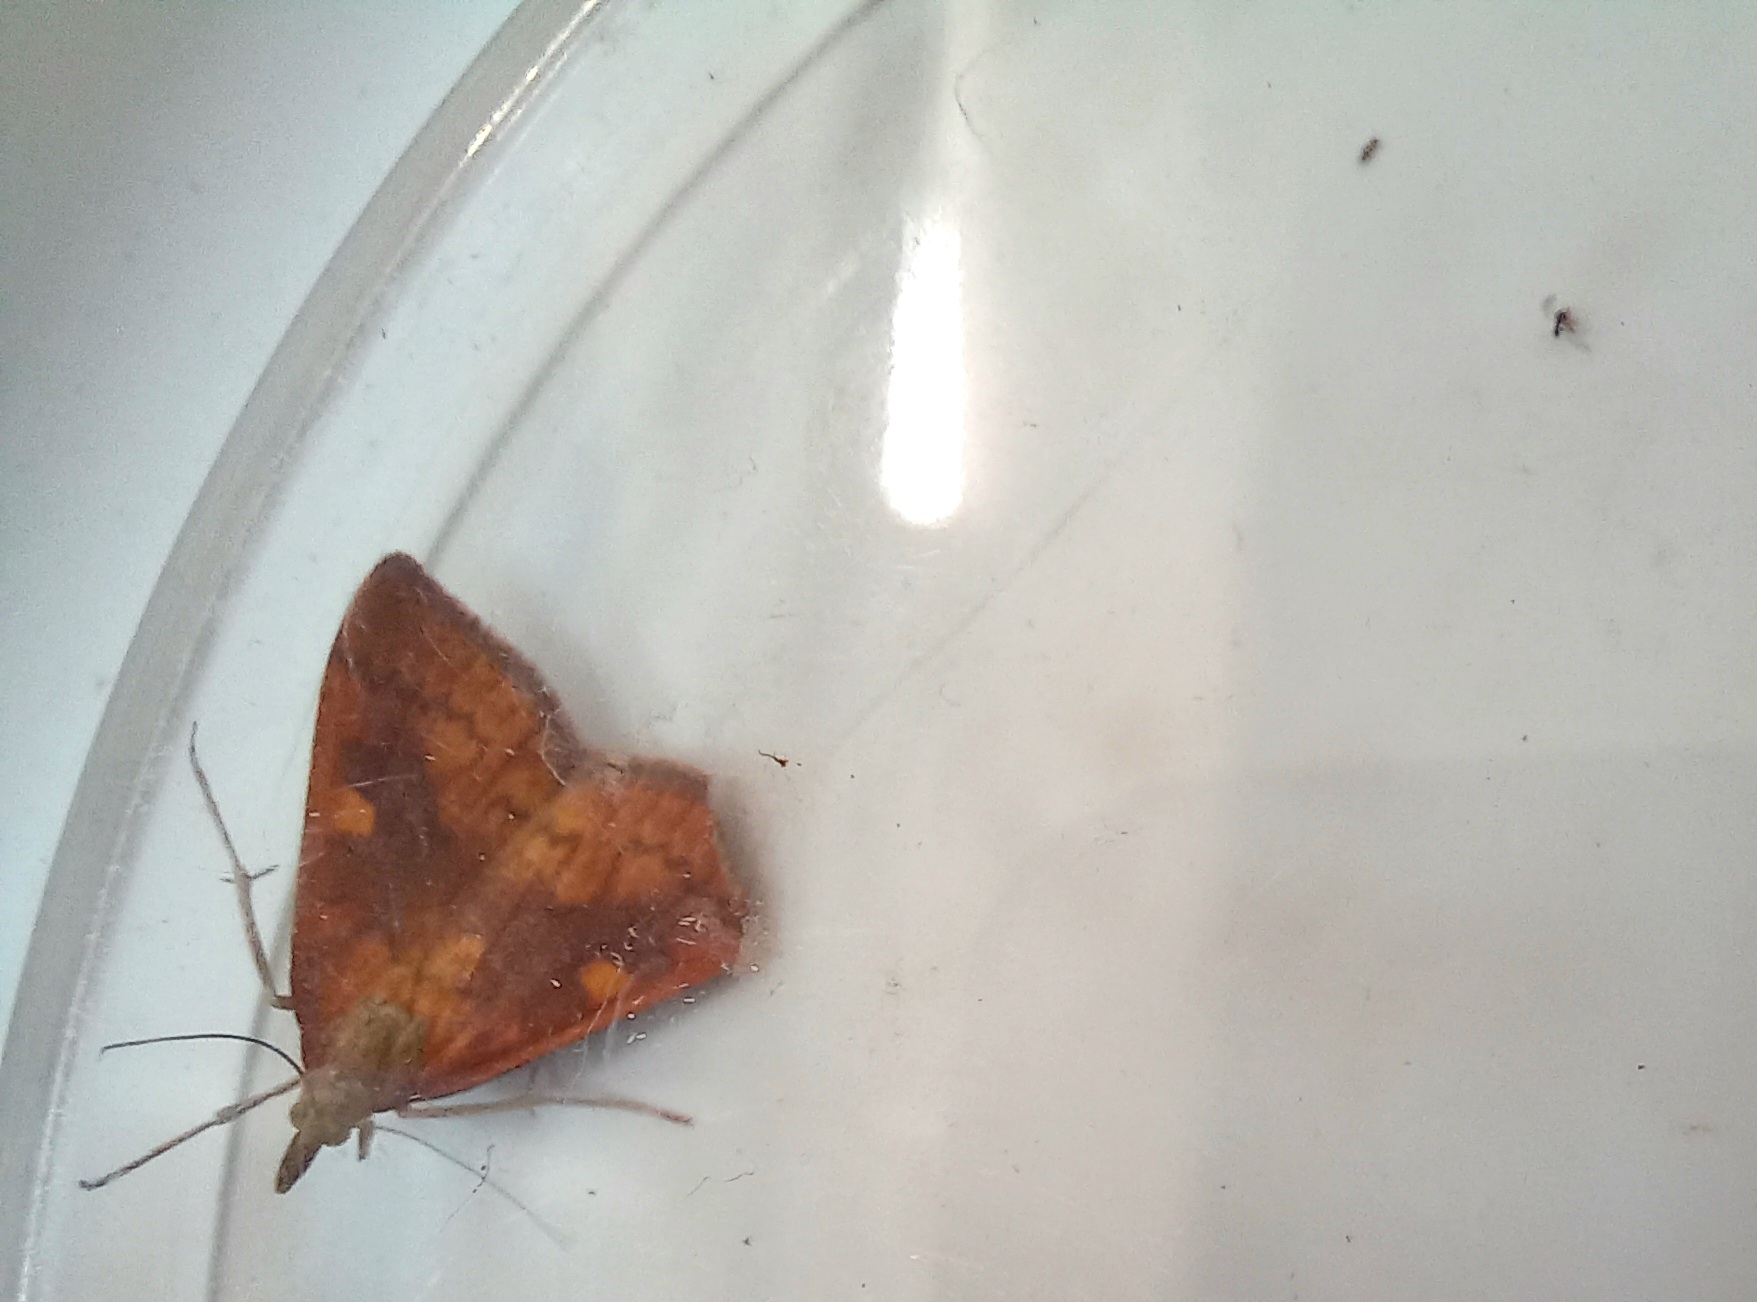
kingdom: Animalia
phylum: Arthropoda
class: Insecta
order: Lepidoptera
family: Crambidae
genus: Udea
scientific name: Udea Mnesictena flavidalis
